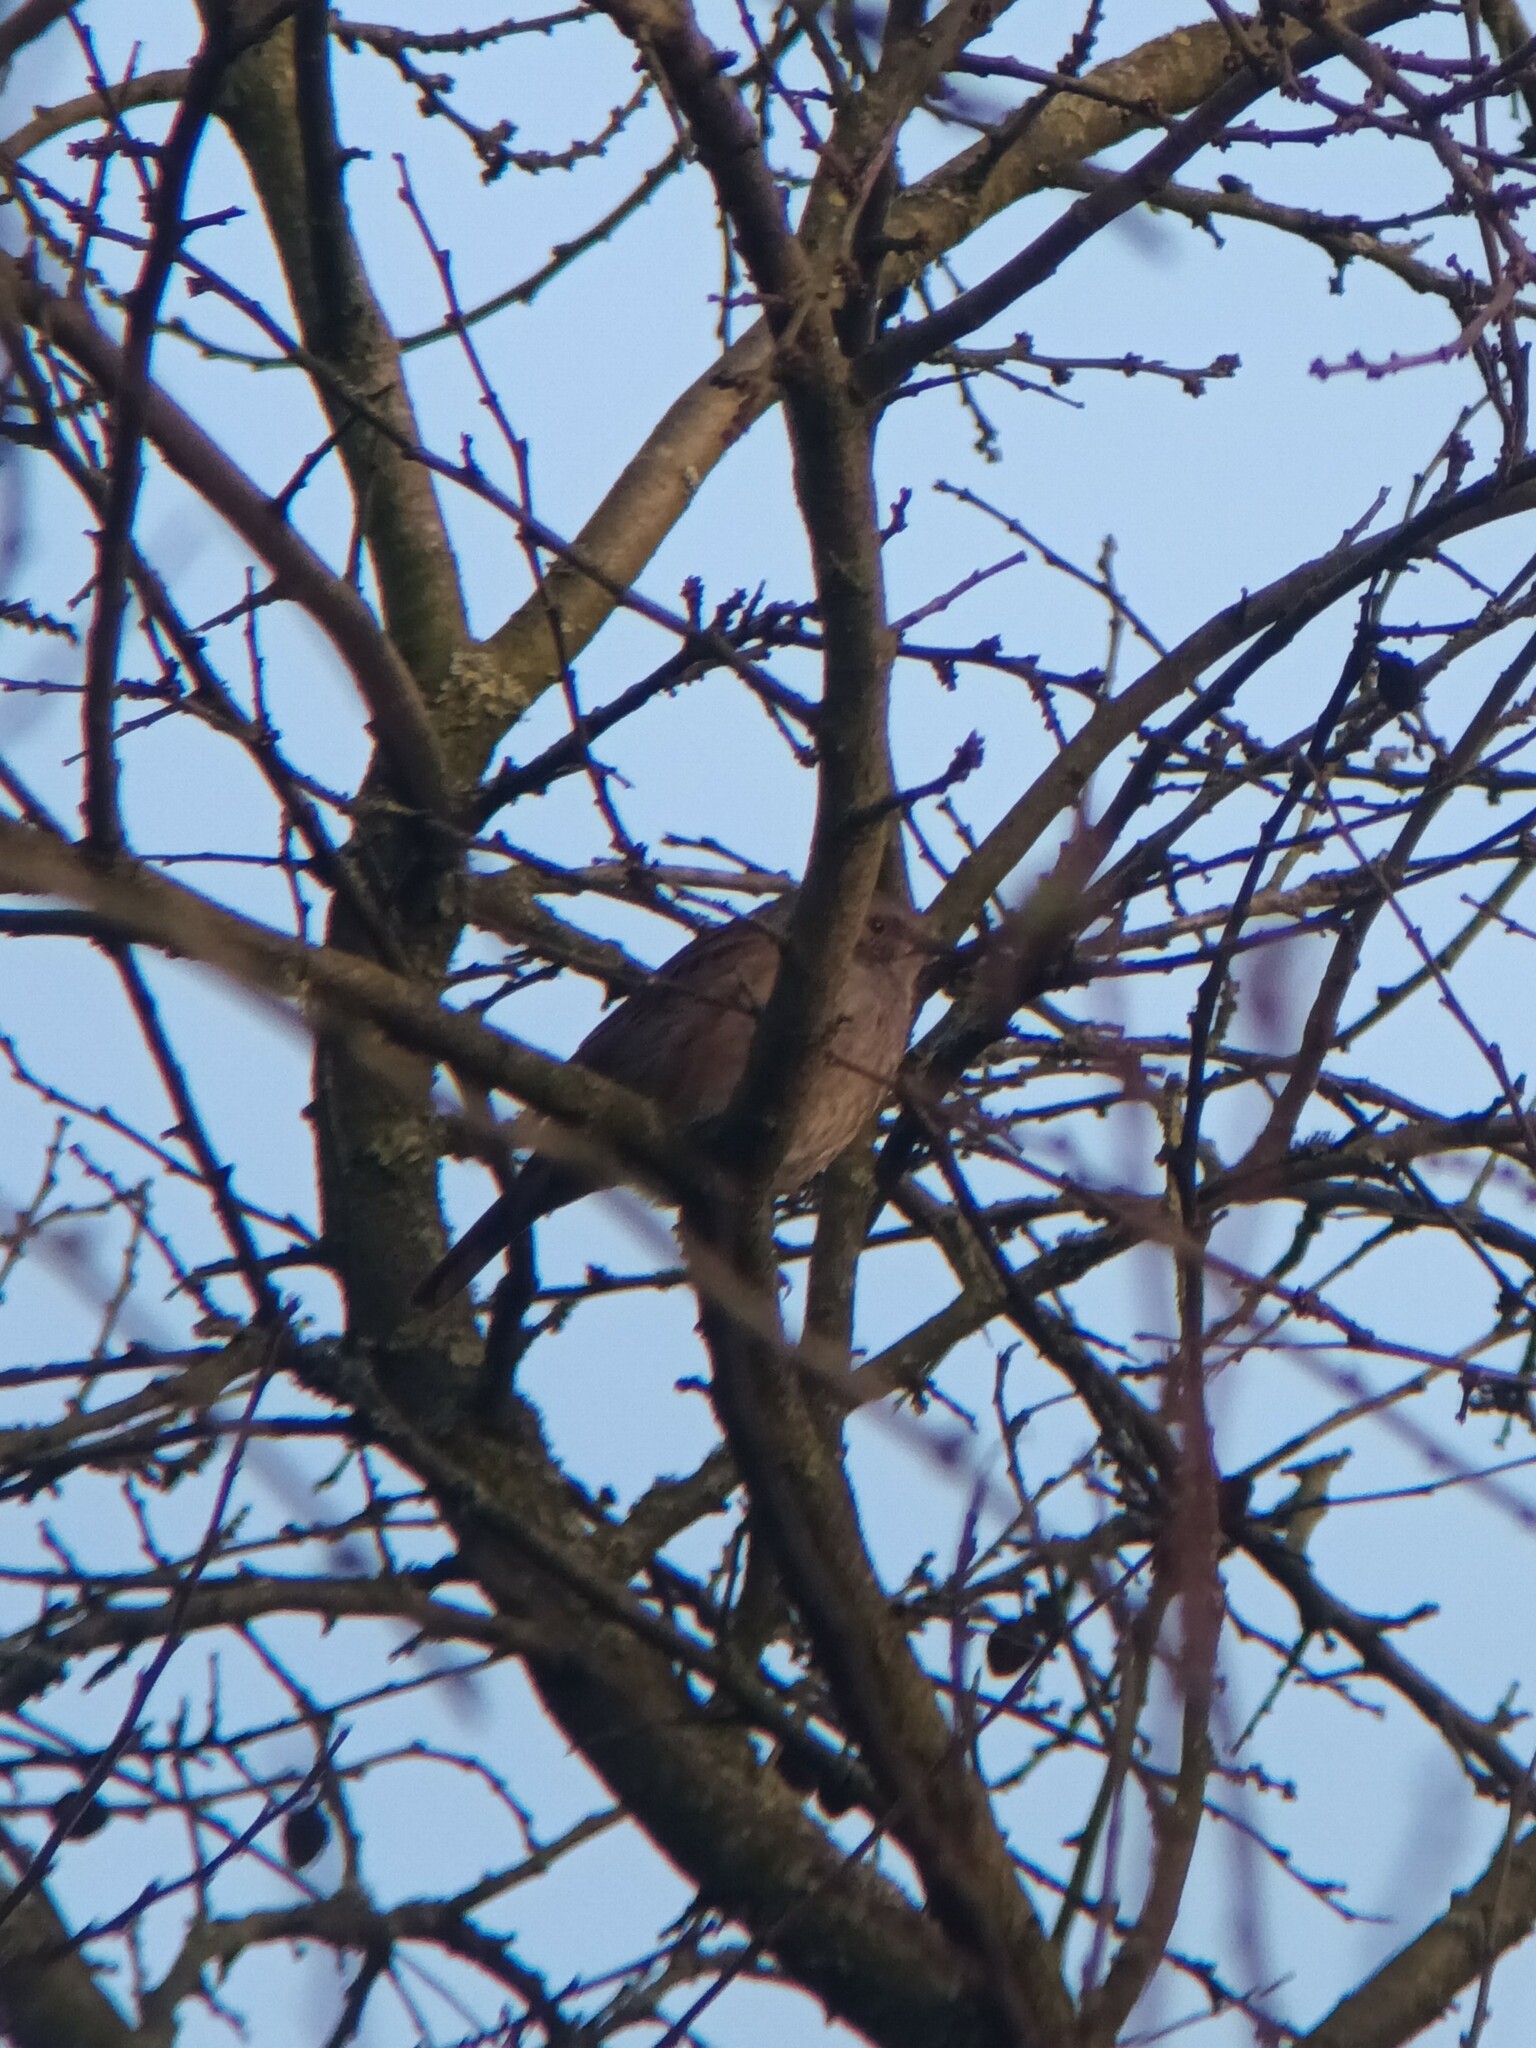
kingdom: Animalia
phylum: Chordata
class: Aves
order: Passeriformes
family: Prunellidae
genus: Prunella
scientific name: Prunella modularis
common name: Dunnock
